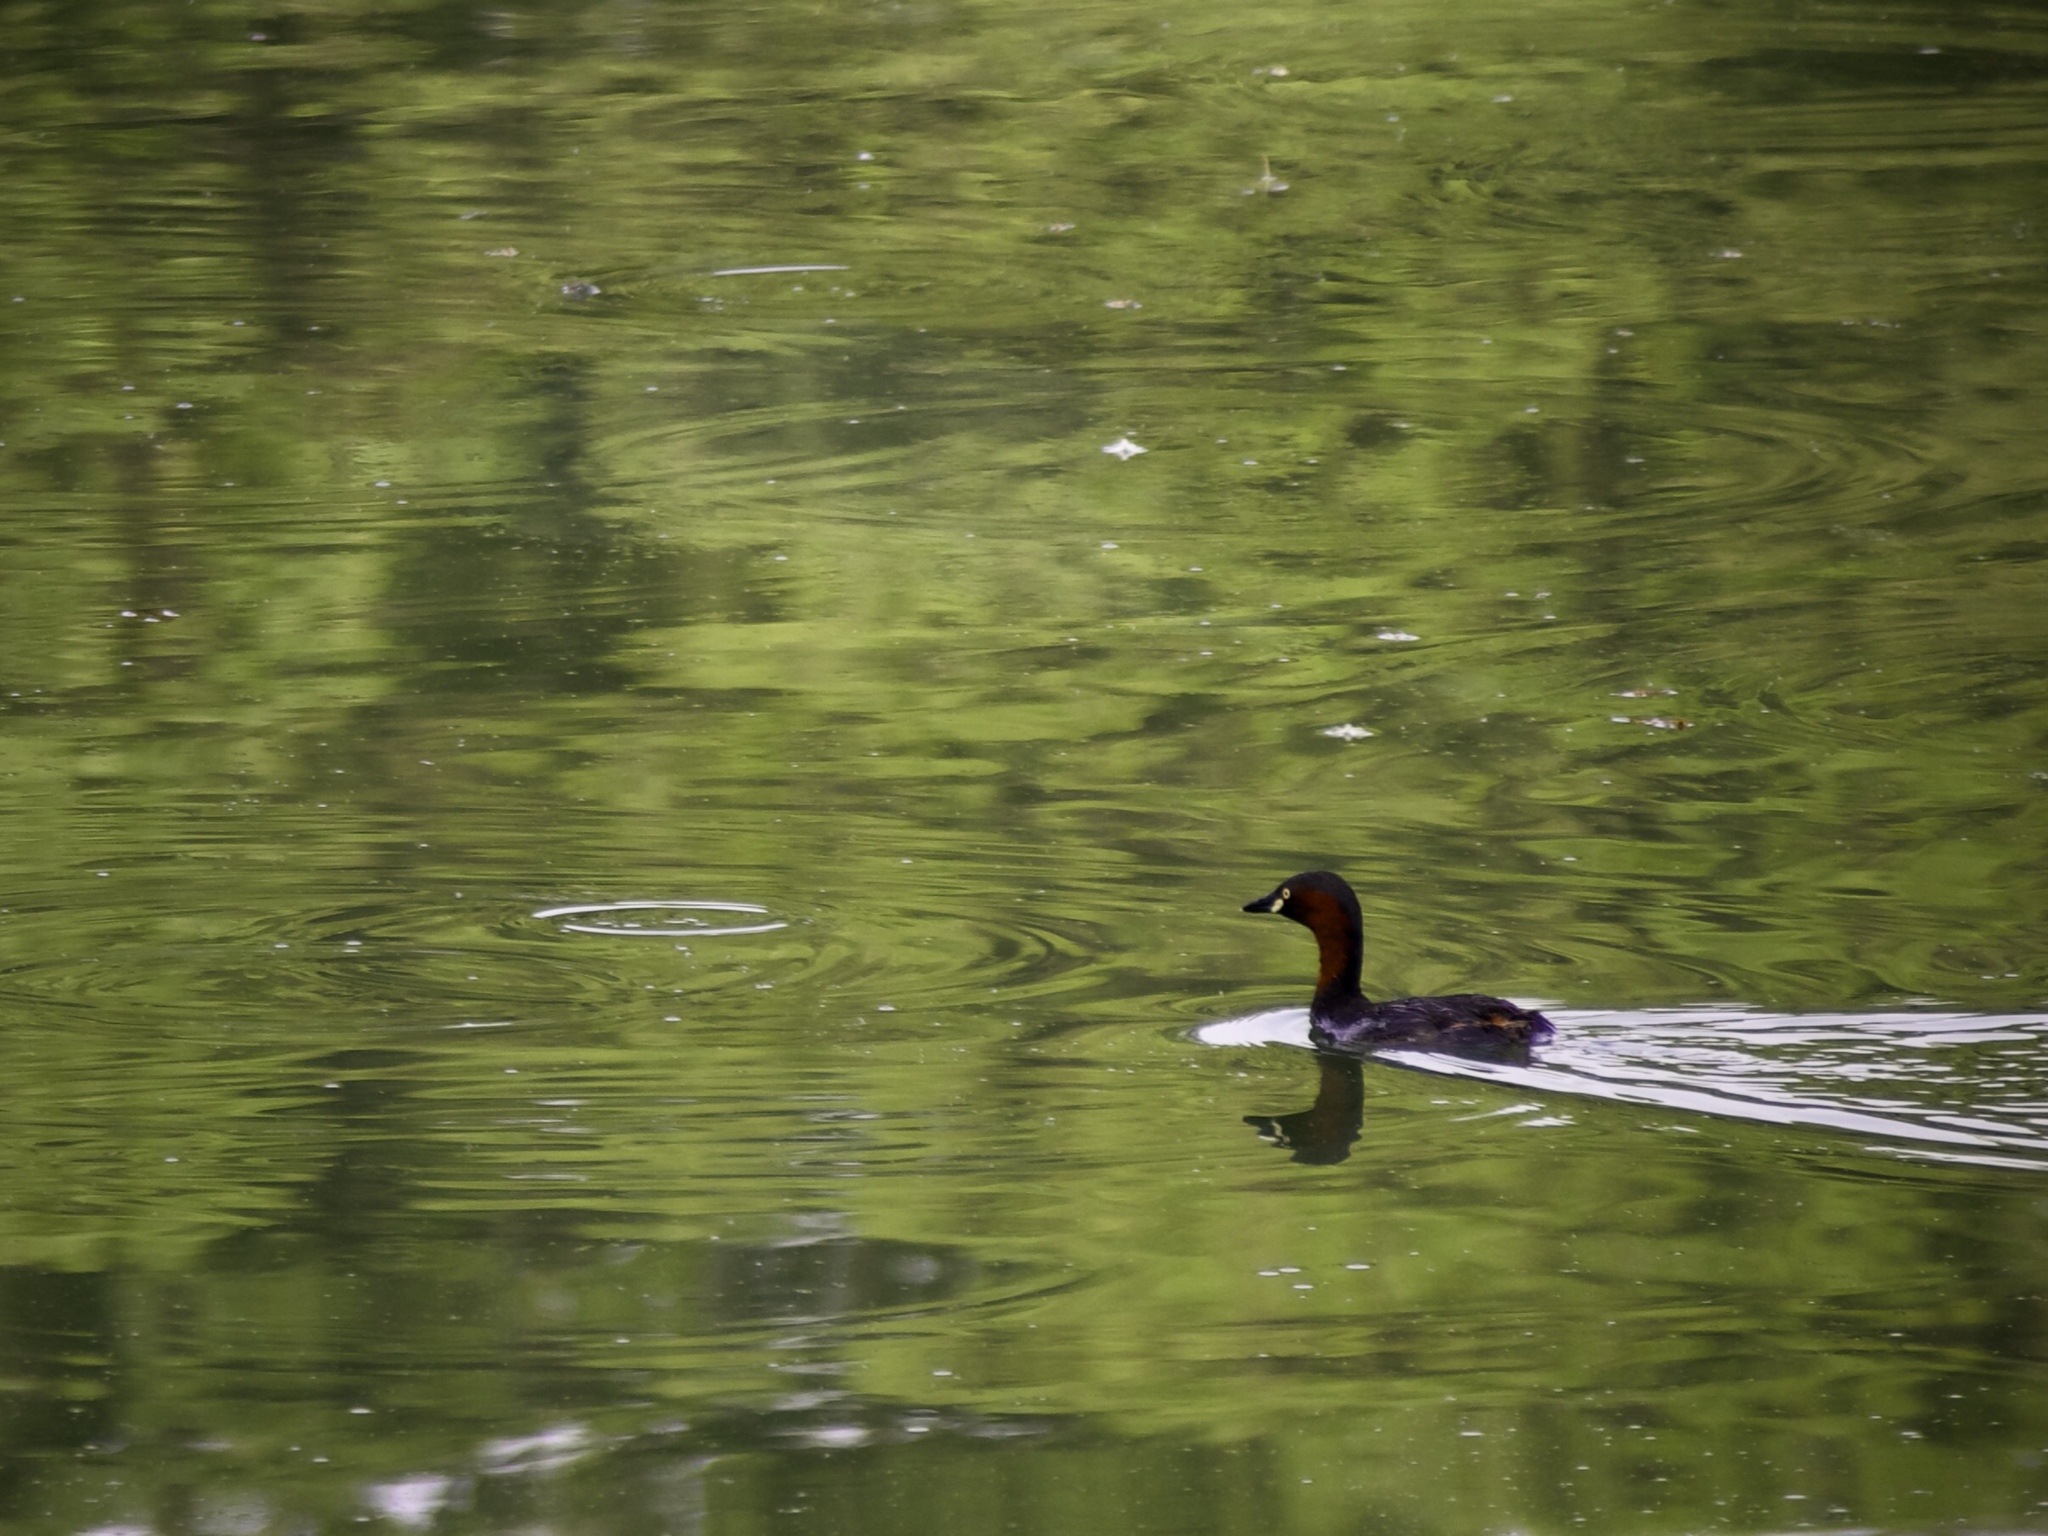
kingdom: Animalia
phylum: Chordata
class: Aves
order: Podicipediformes
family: Podicipedidae
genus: Tachybaptus
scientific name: Tachybaptus ruficollis
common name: Little grebe
